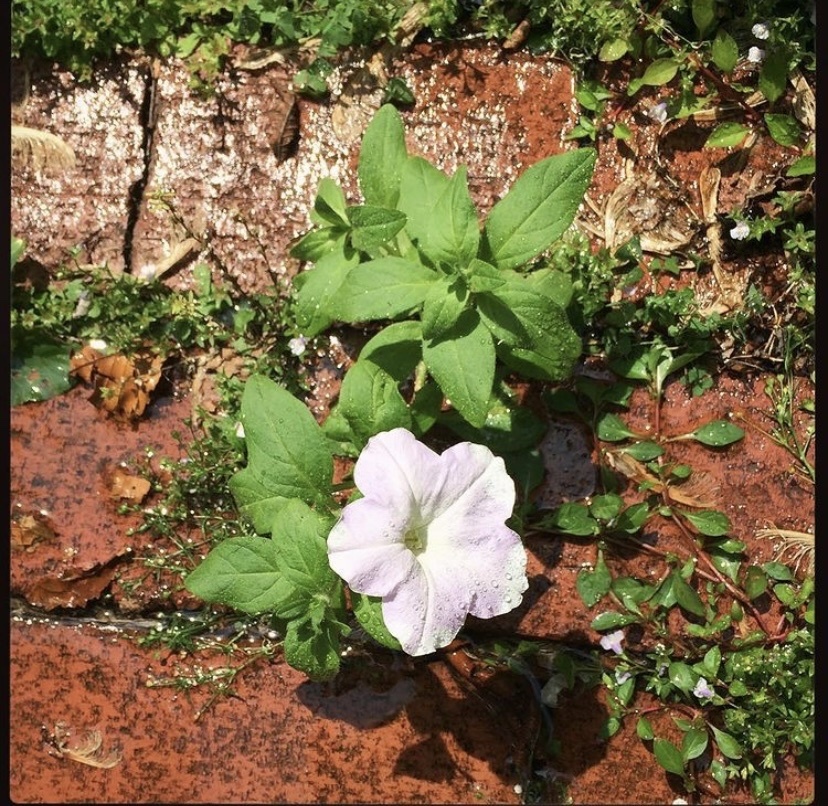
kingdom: Plantae
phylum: Tracheophyta
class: Magnoliopsida
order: Solanales
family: Solanaceae
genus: Petunia
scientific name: Petunia atkinsiana
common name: Petunia
